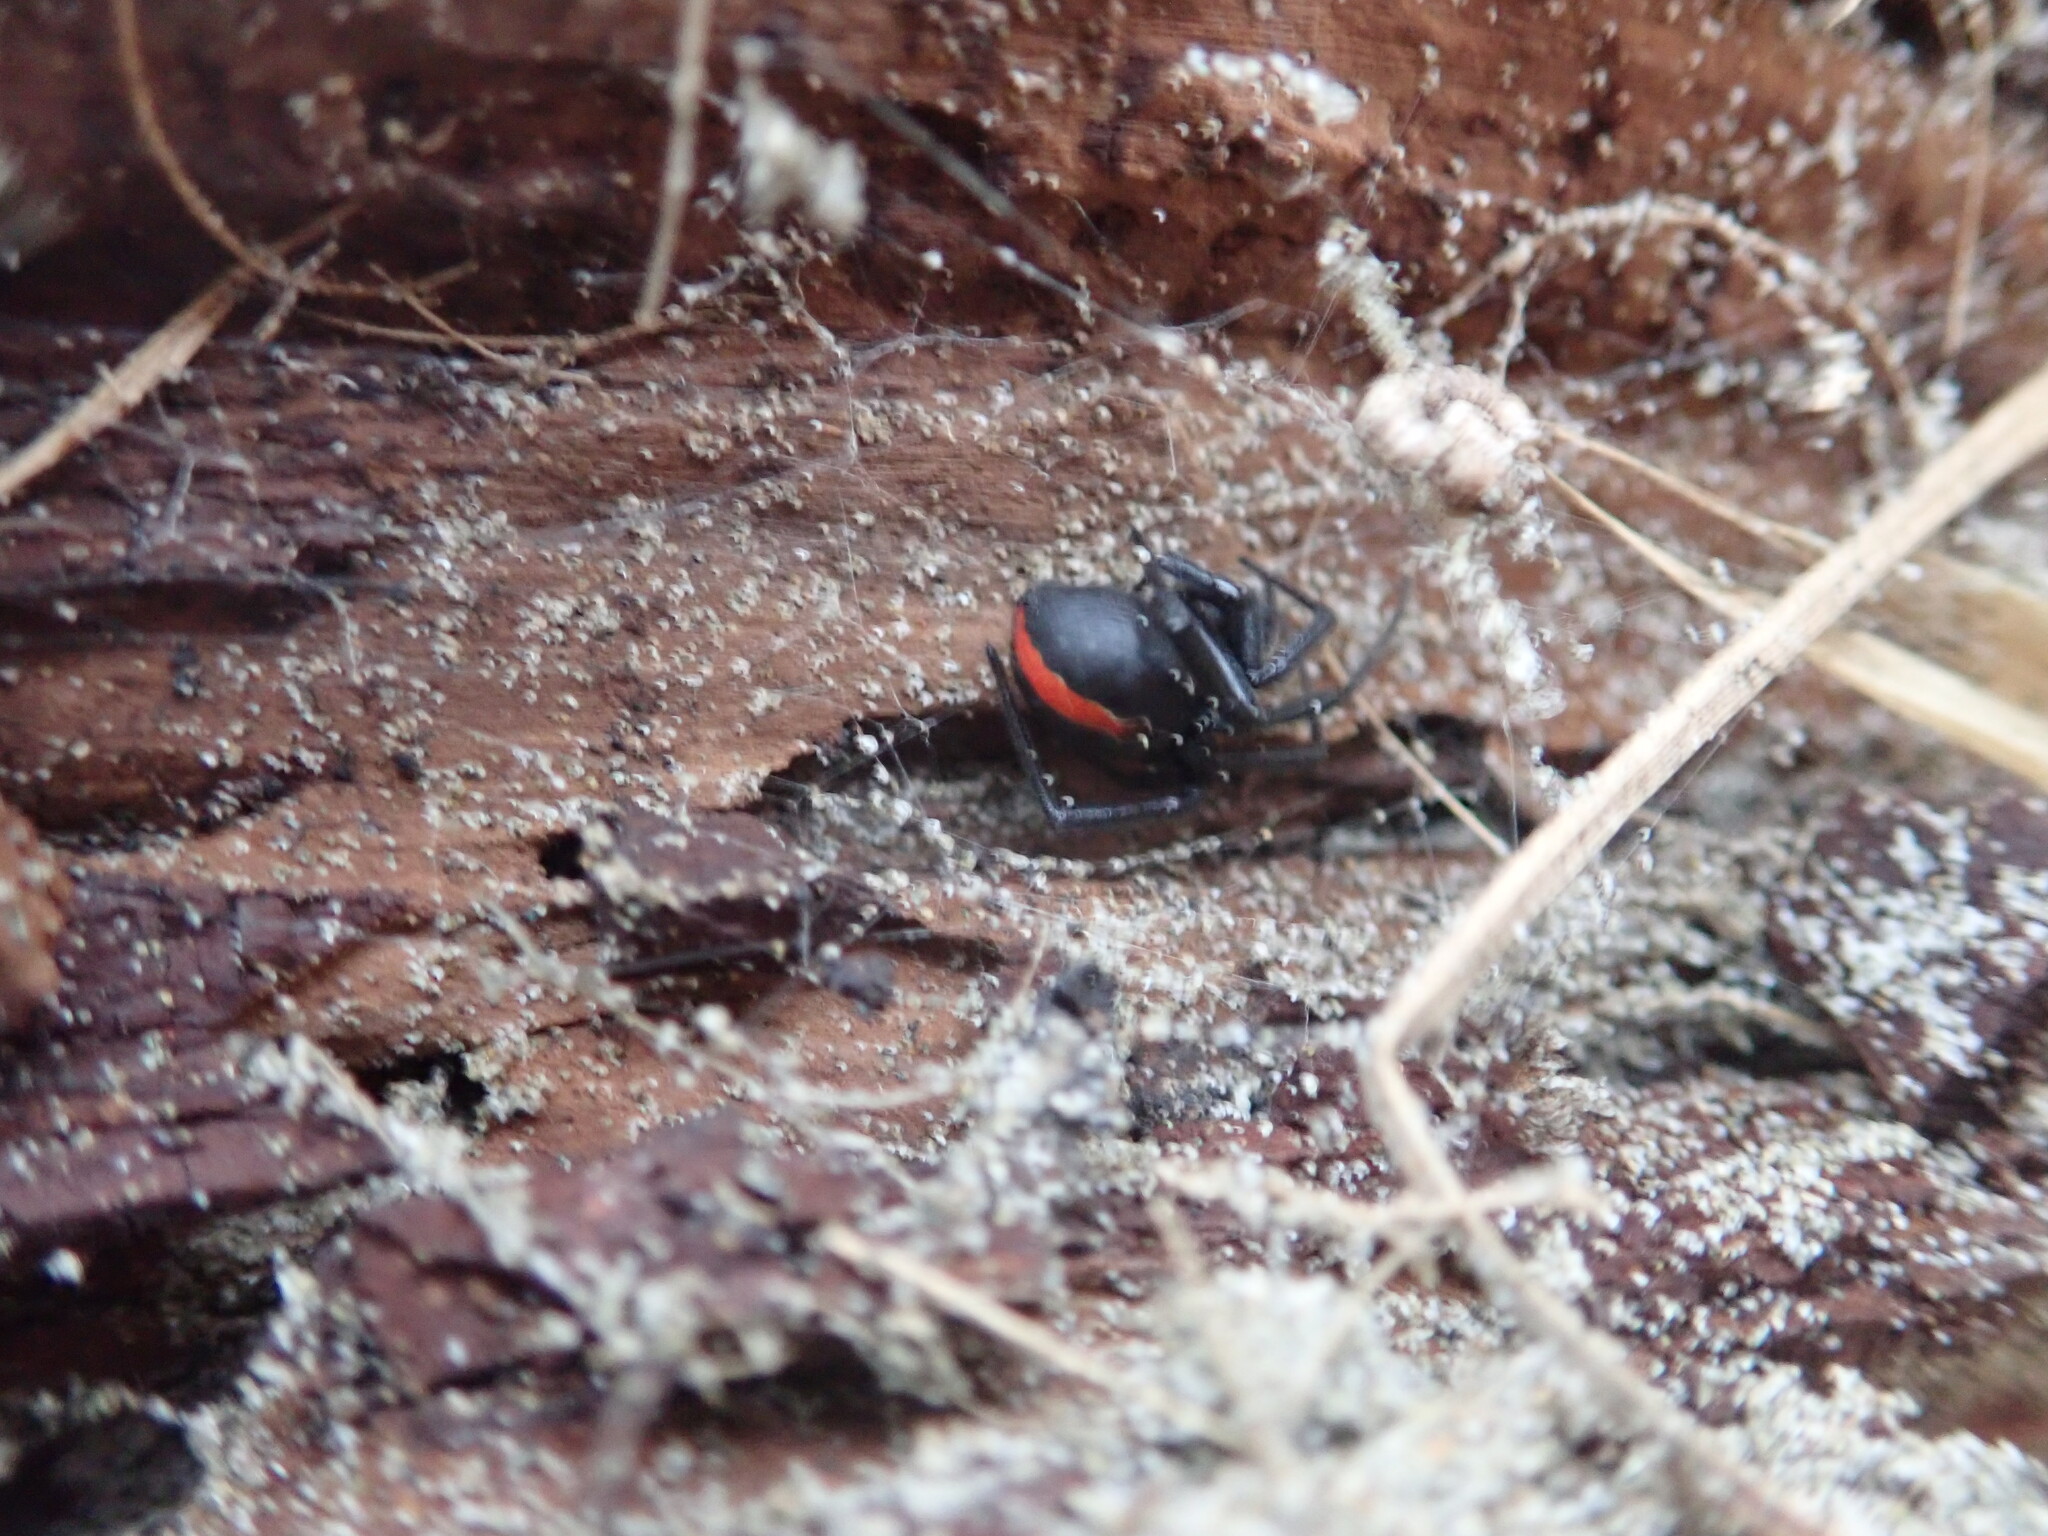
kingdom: Animalia
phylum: Arthropoda
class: Arachnida
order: Araneae
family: Theridiidae
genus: Latrodectus
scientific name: Latrodectus katipo
